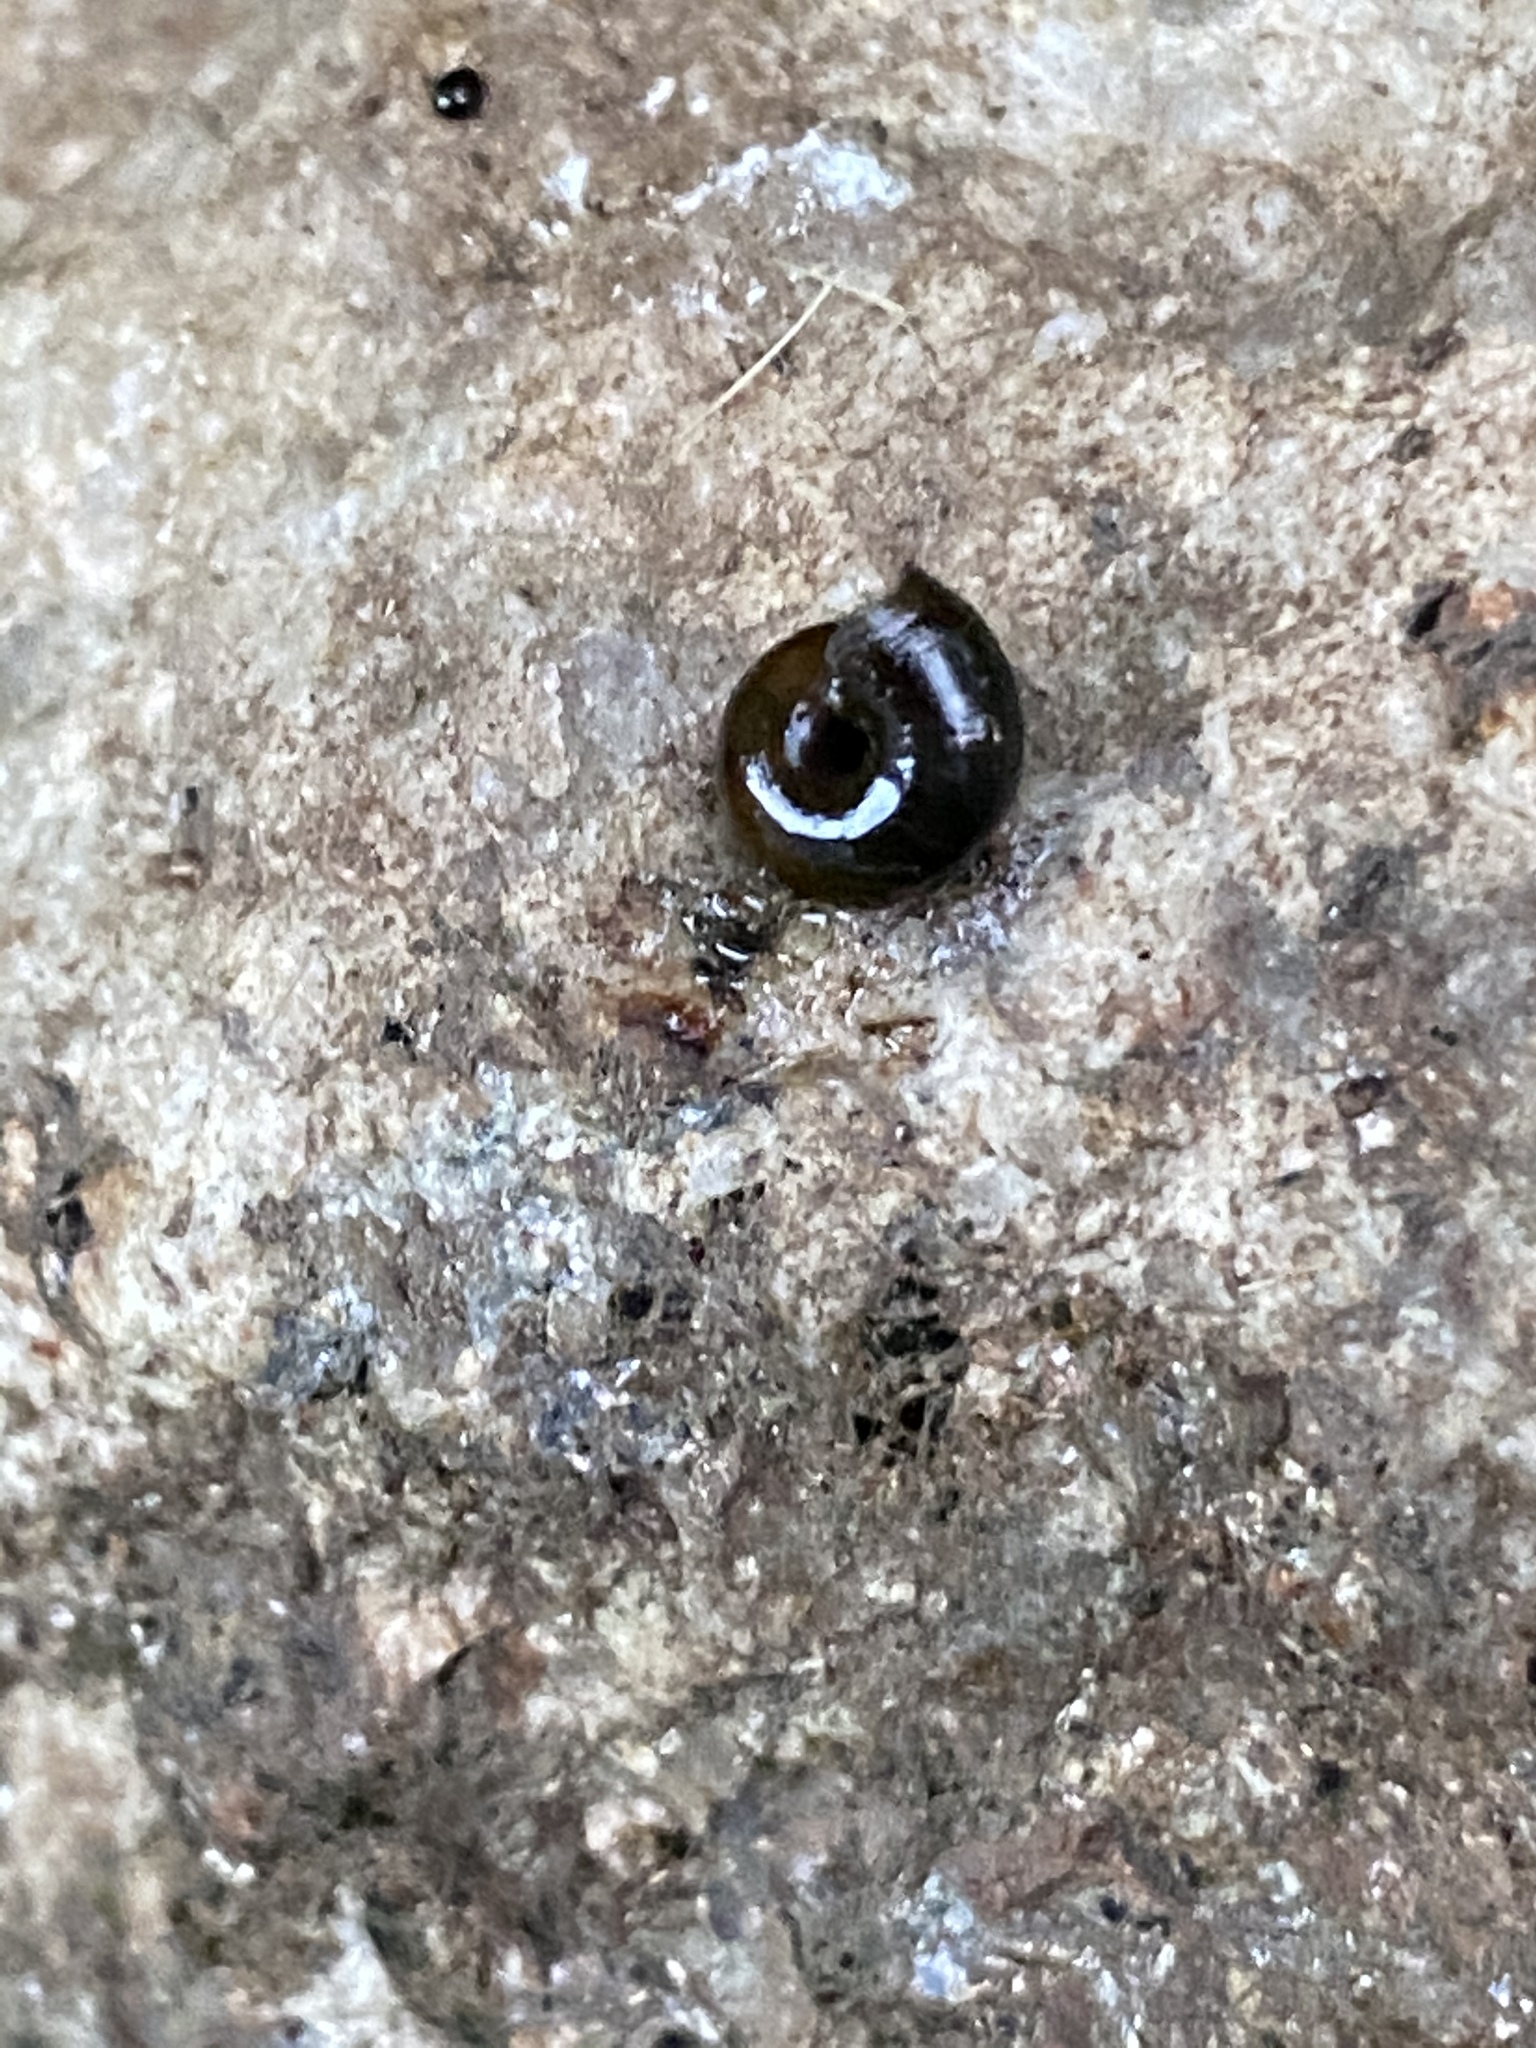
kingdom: Animalia
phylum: Mollusca
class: Gastropoda
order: Stylommatophora
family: Gastrodontidae
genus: Zonitoides
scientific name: Zonitoides nitidus
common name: Shiny glass snail
